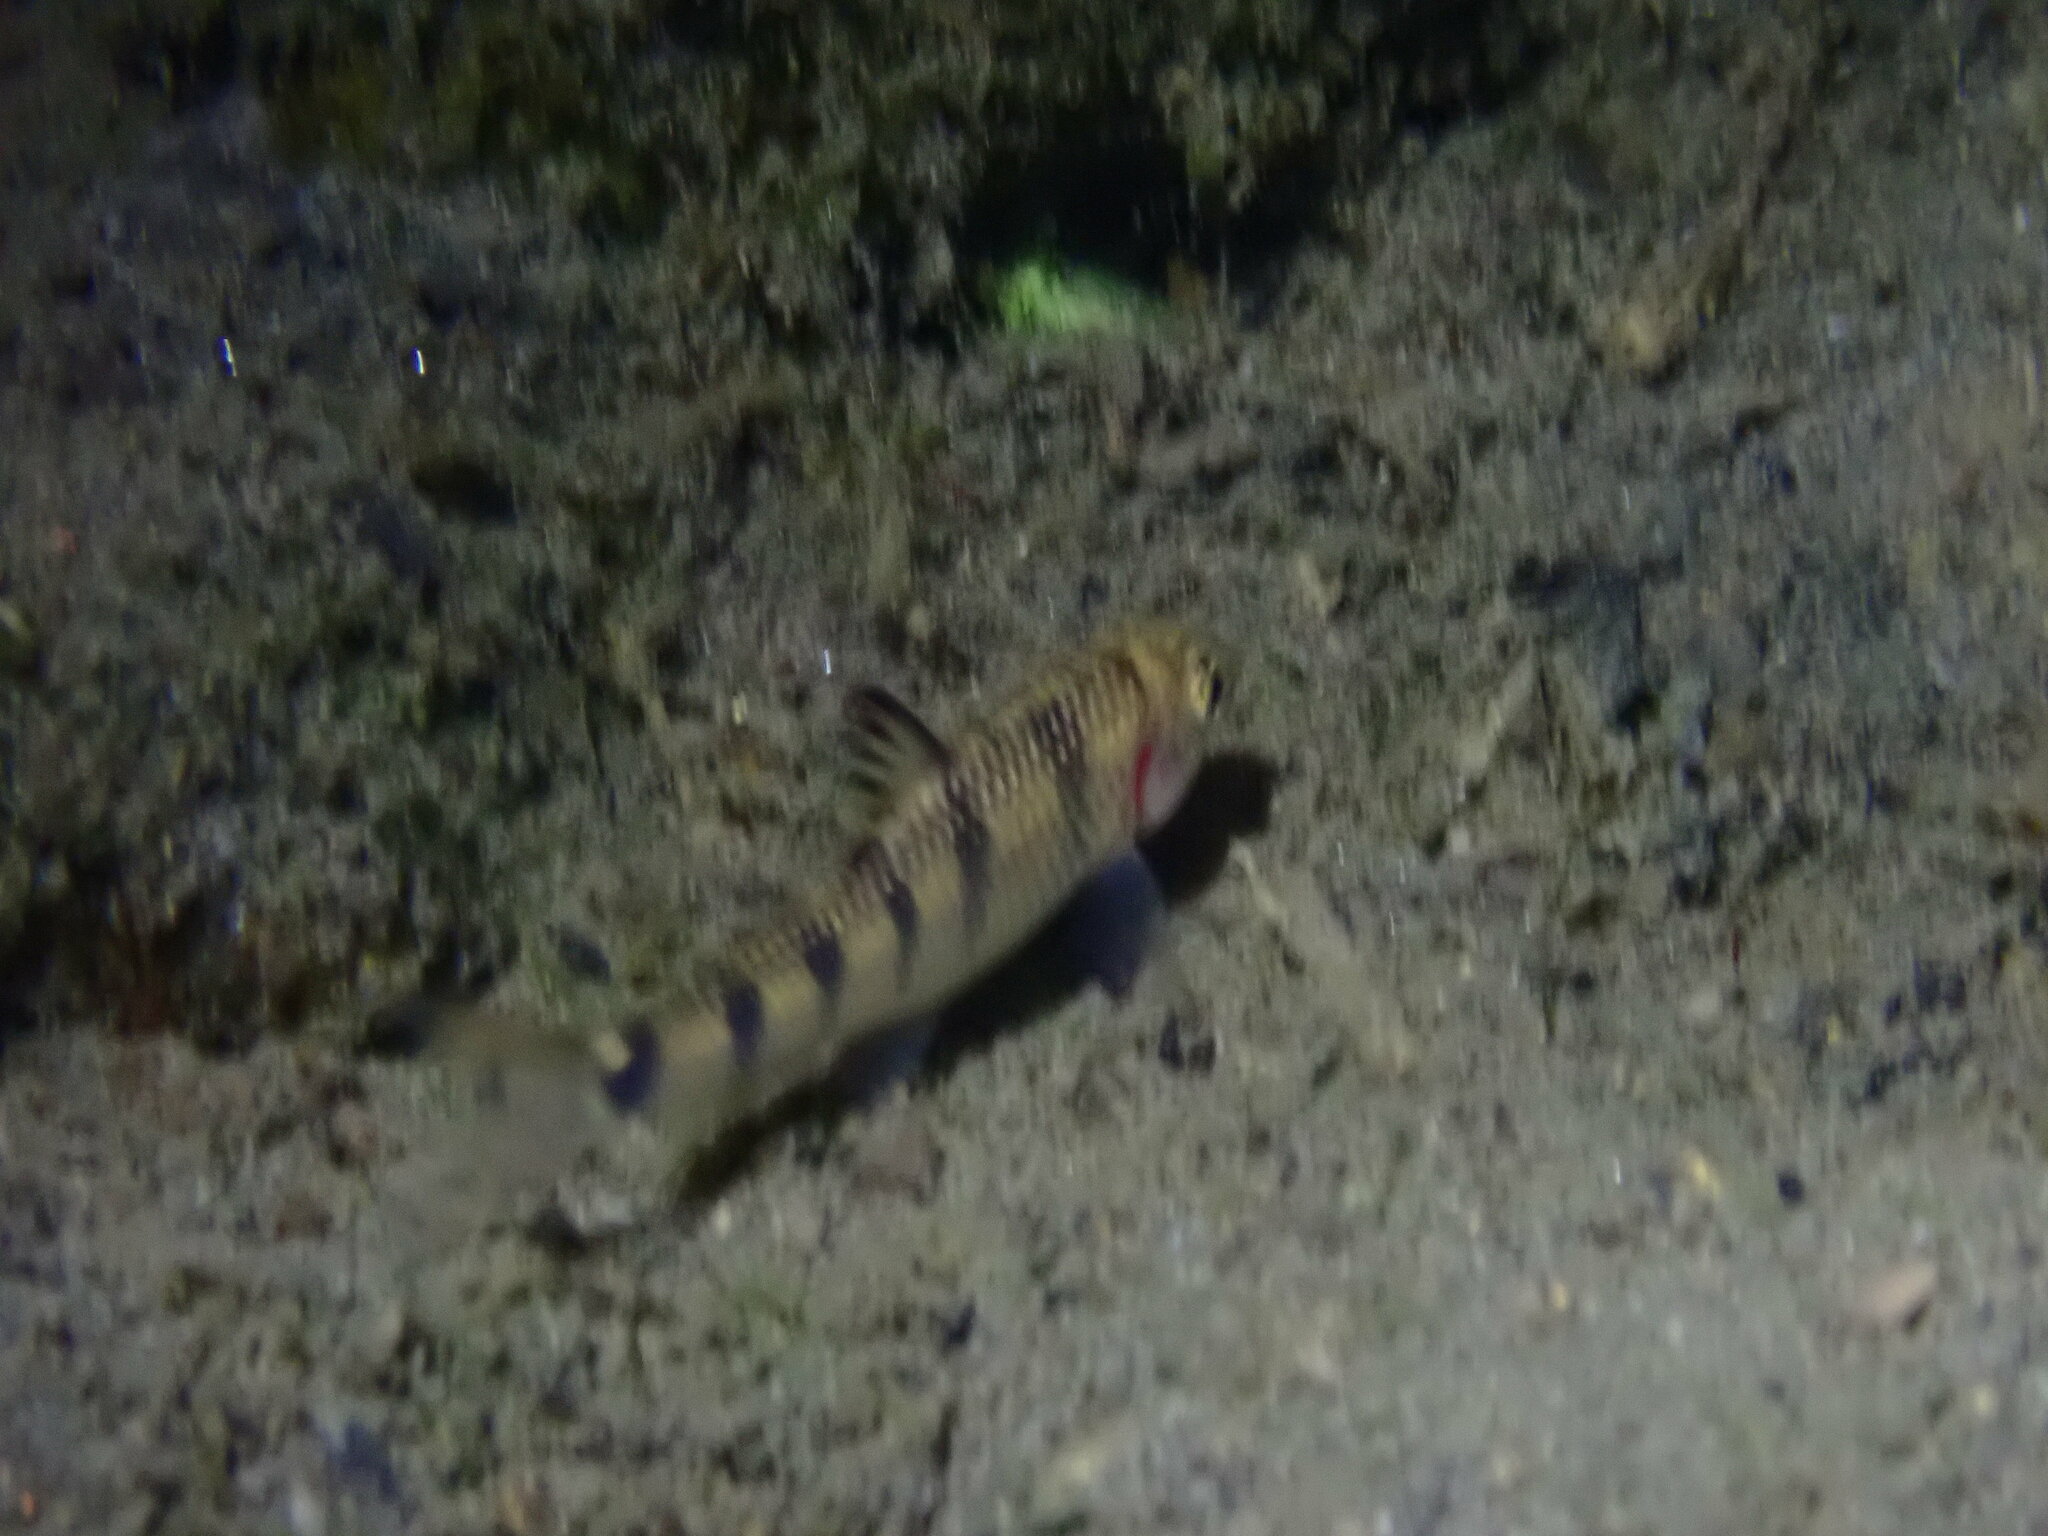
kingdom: Animalia
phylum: Chordata
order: Cypriniformes
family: Cyprinidae
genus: Acrossocheilus
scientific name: Acrossocheilus paradoxus
